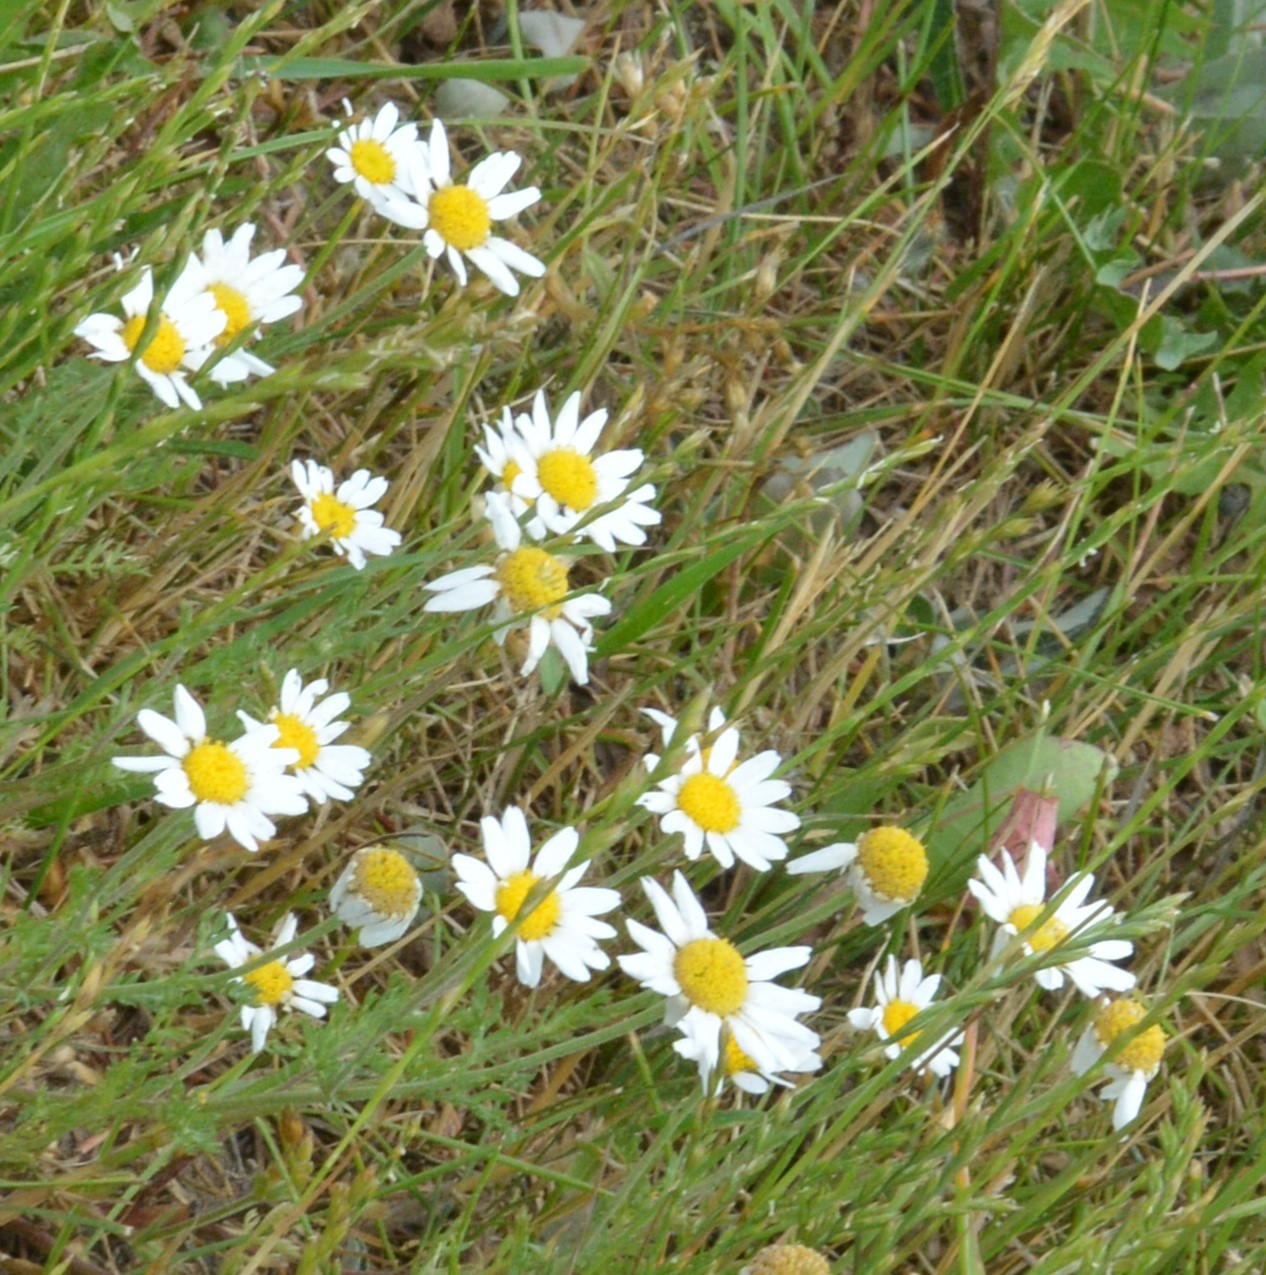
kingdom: Plantae
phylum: Tracheophyta
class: Magnoliopsida
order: Asterales
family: Asteraceae
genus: Leucanthemum
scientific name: Leucanthemum vulgare
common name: Oxeye daisy
